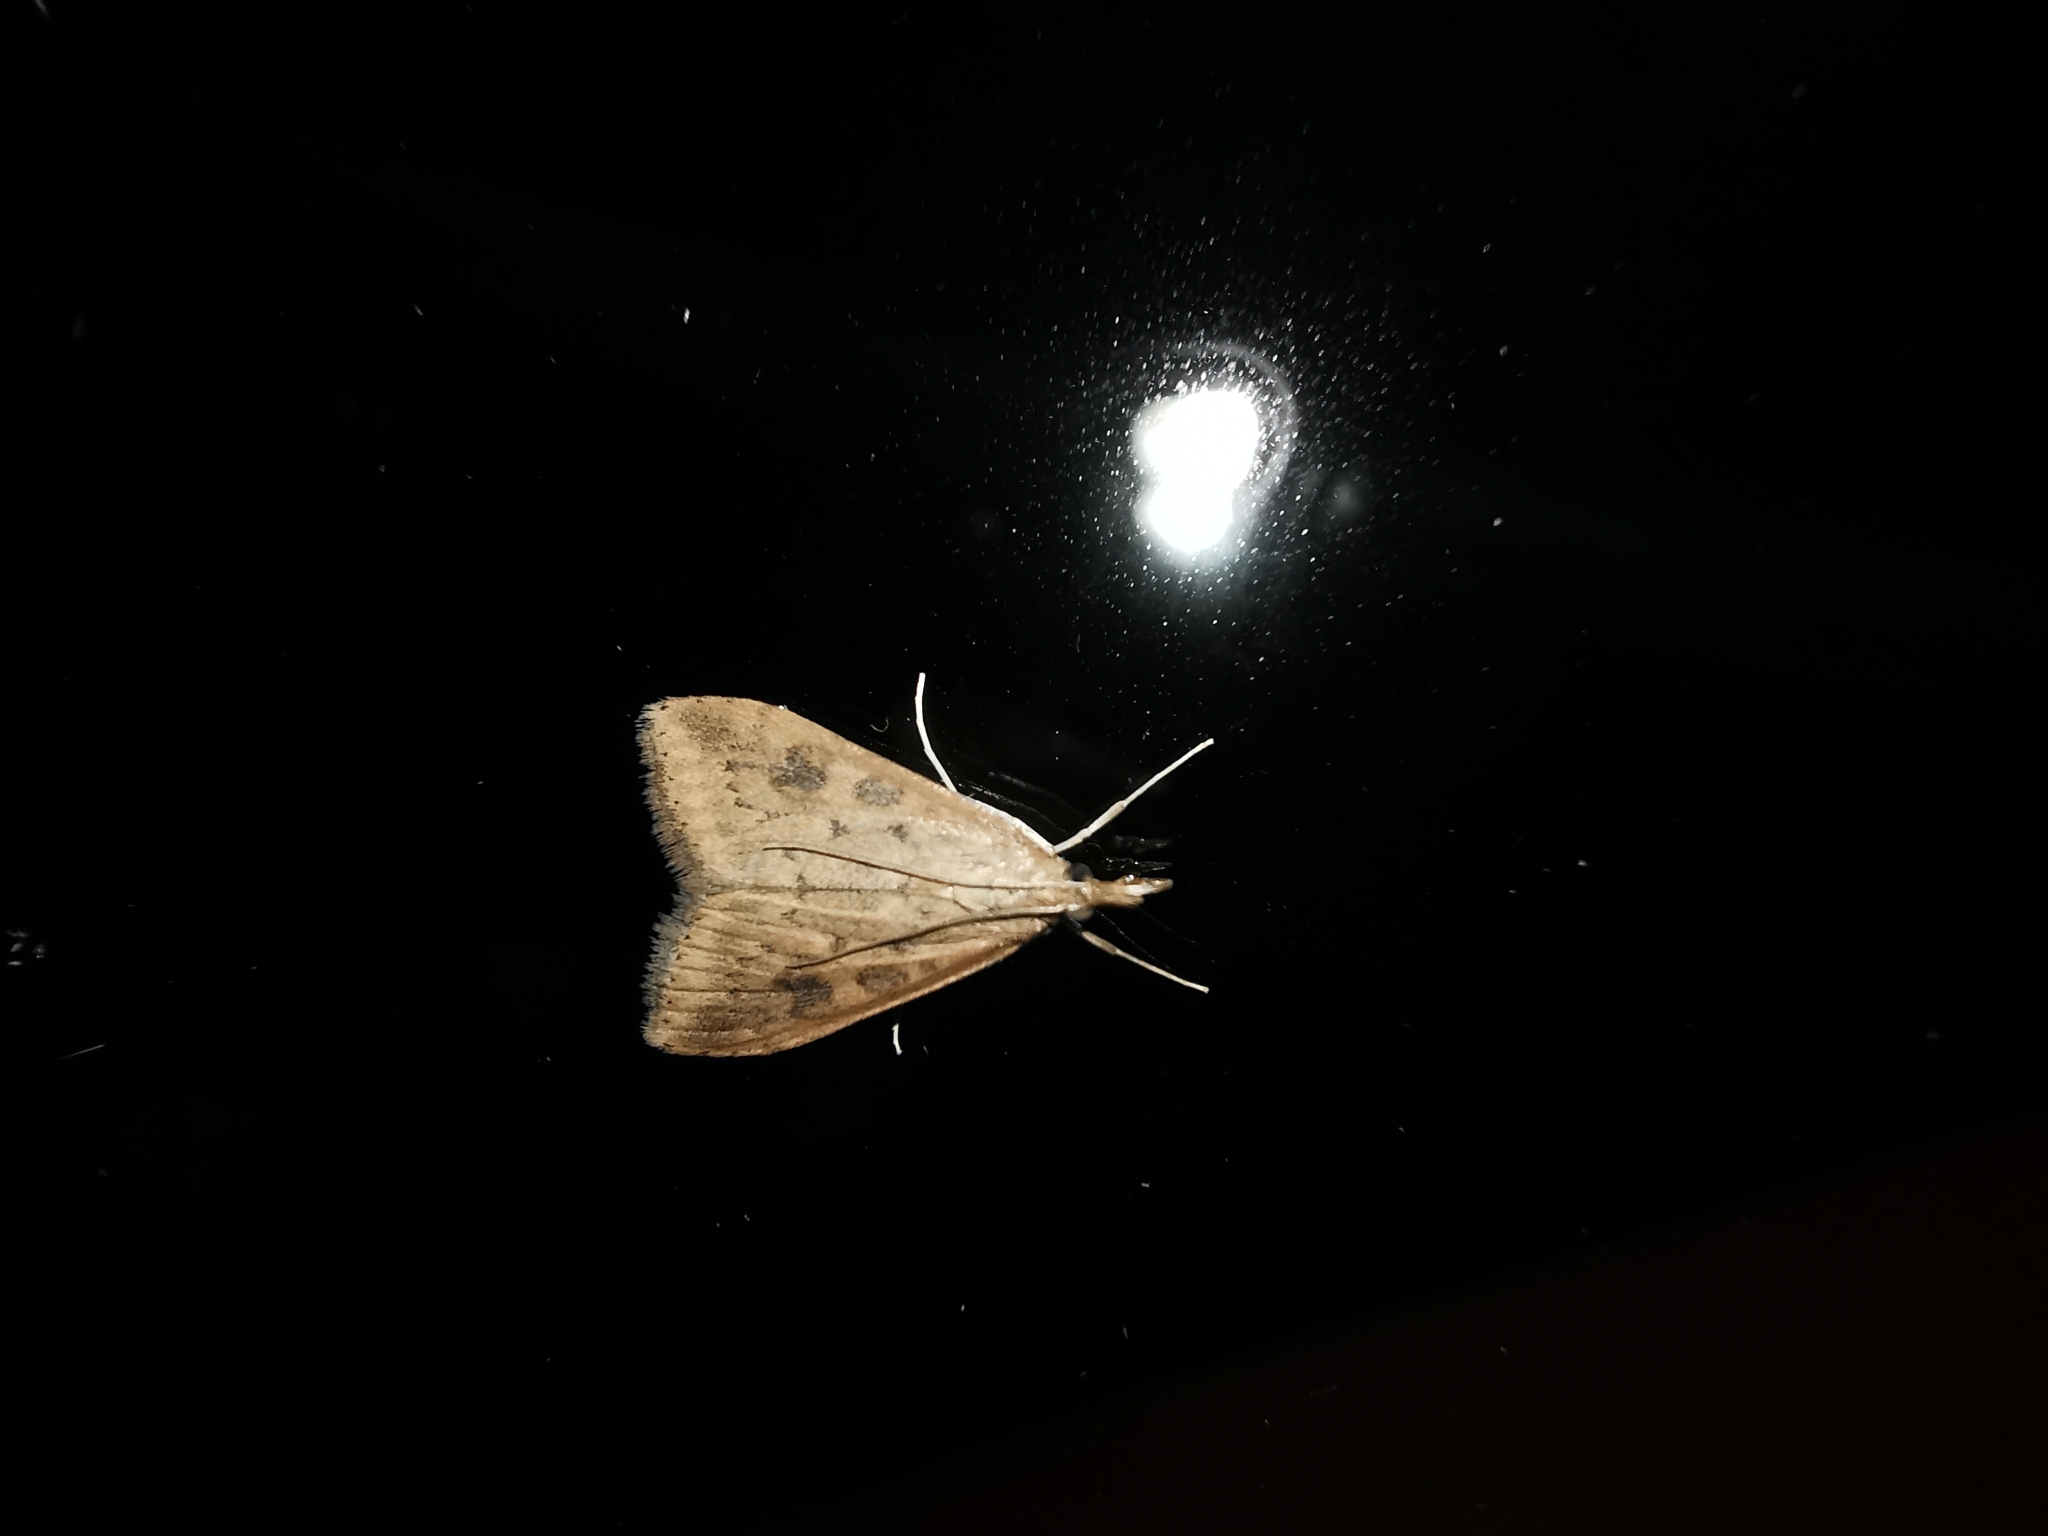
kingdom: Animalia
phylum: Arthropoda
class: Insecta
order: Lepidoptera
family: Crambidae
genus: Udea
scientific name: Udea ferrugalis
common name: Rusty dot
